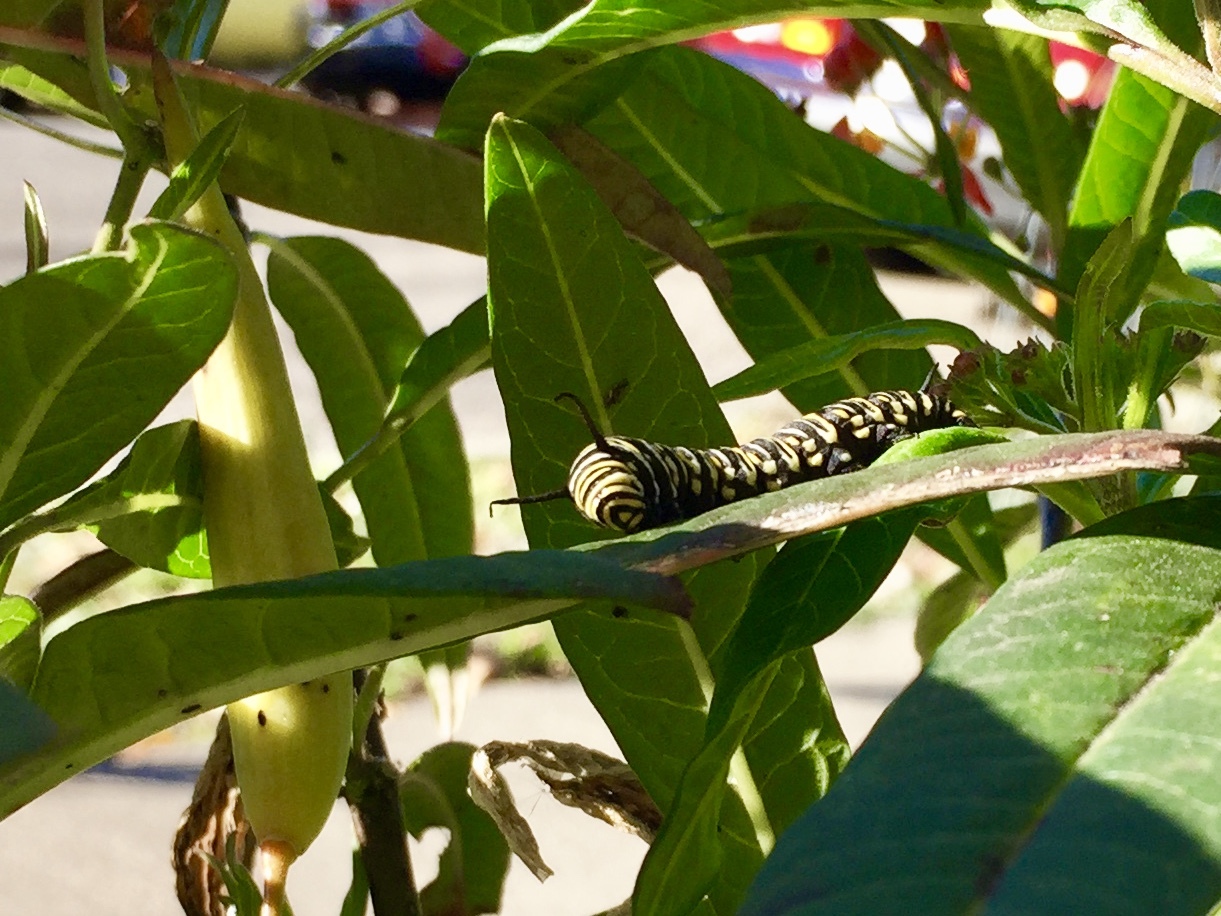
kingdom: Animalia
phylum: Arthropoda
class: Insecta
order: Lepidoptera
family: Nymphalidae
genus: Danaus
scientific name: Danaus plexippus
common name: Monarch
